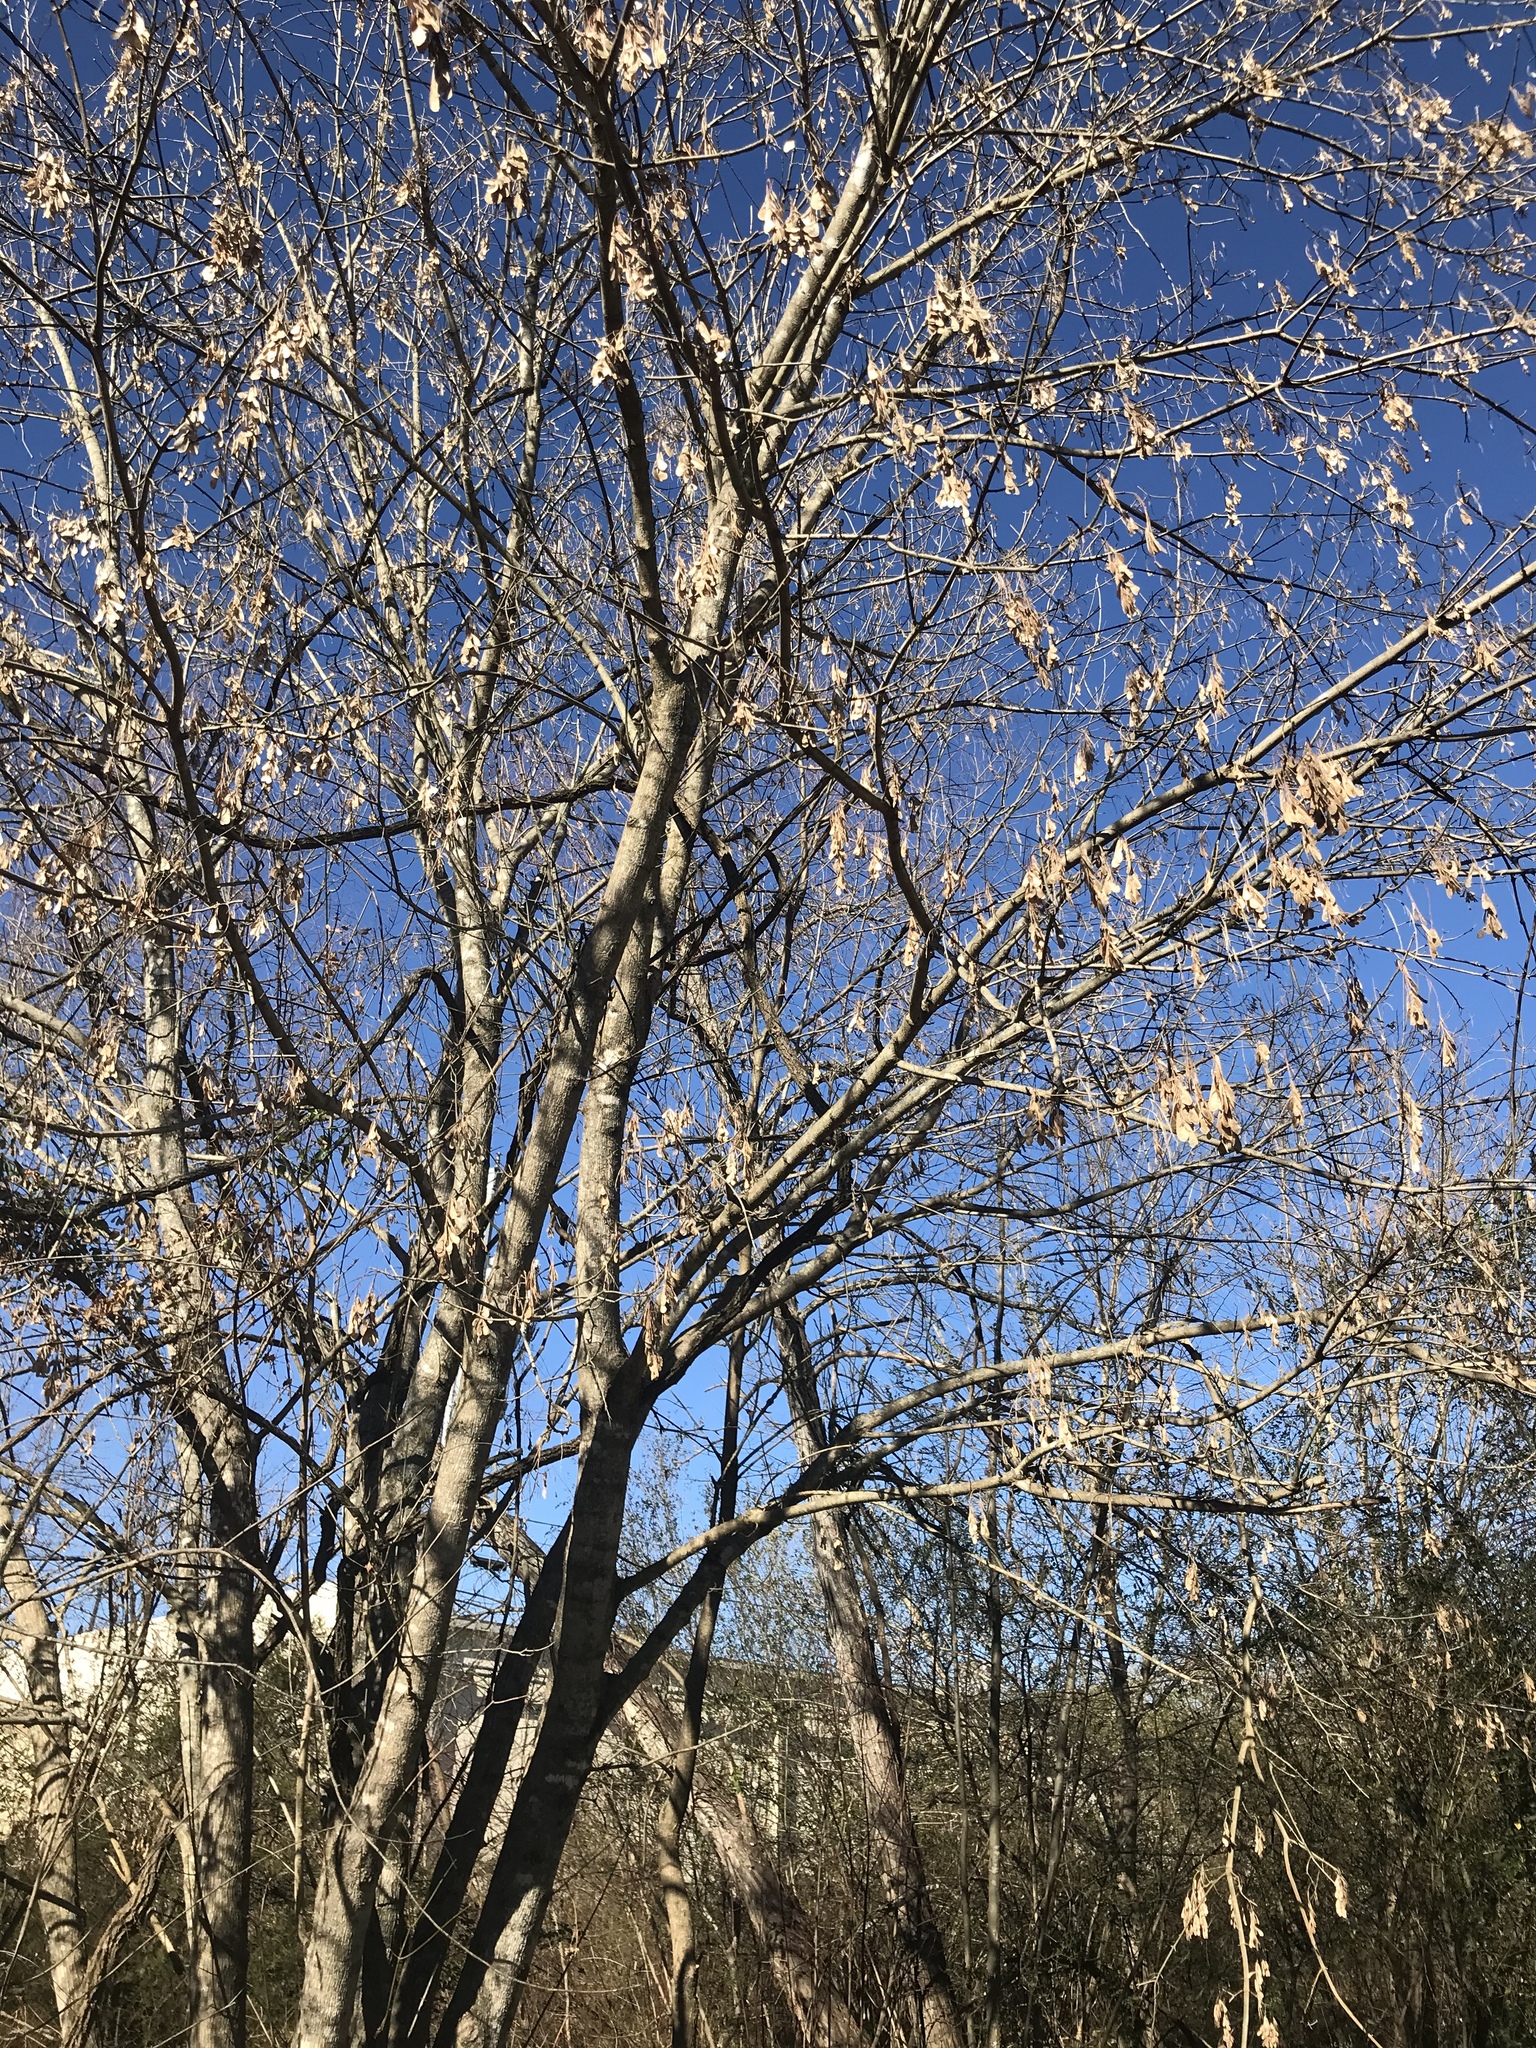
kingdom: Plantae
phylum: Tracheophyta
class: Magnoliopsida
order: Sapindales
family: Sapindaceae
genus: Acer
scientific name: Acer negundo
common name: Ashleaf maple
